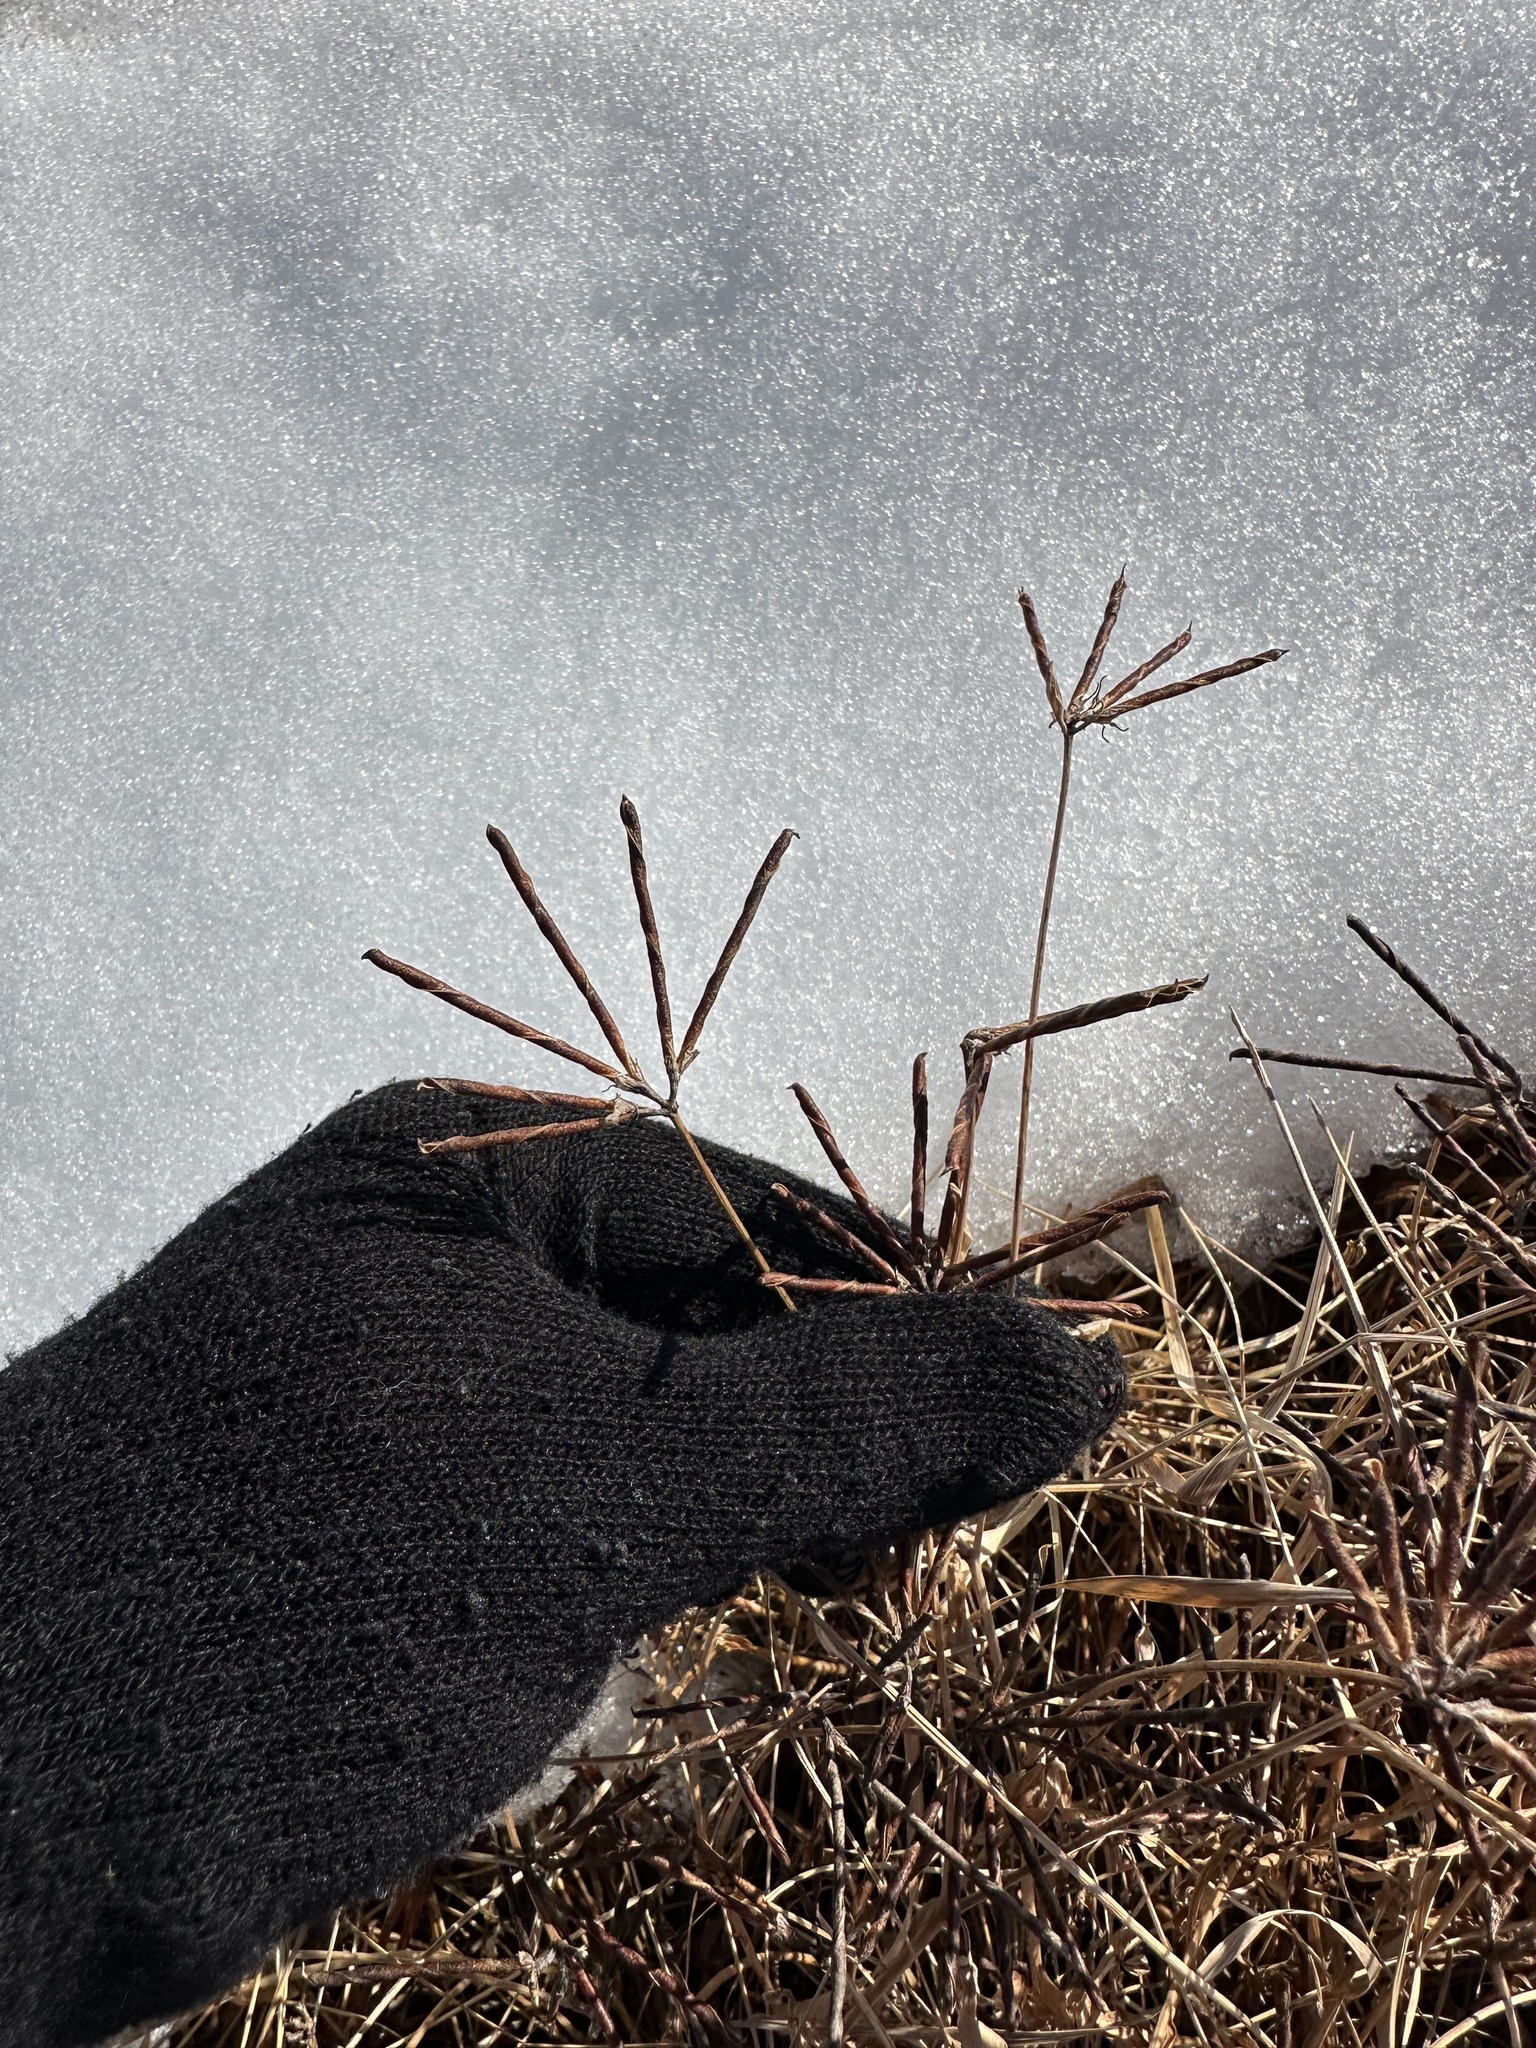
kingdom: Plantae
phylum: Tracheophyta
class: Magnoliopsida
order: Fabales
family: Fabaceae
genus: Lotus
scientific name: Lotus corniculatus
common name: Common bird's-foot-trefoil
